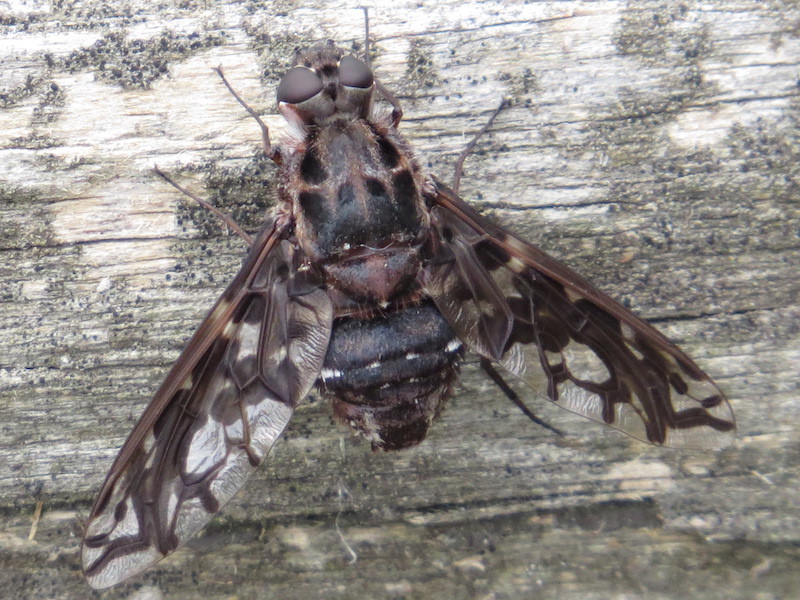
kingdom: Animalia
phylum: Arthropoda
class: Insecta
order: Diptera
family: Bombyliidae
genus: Xenox
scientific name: Xenox tigrinus
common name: Tiger bee fly
